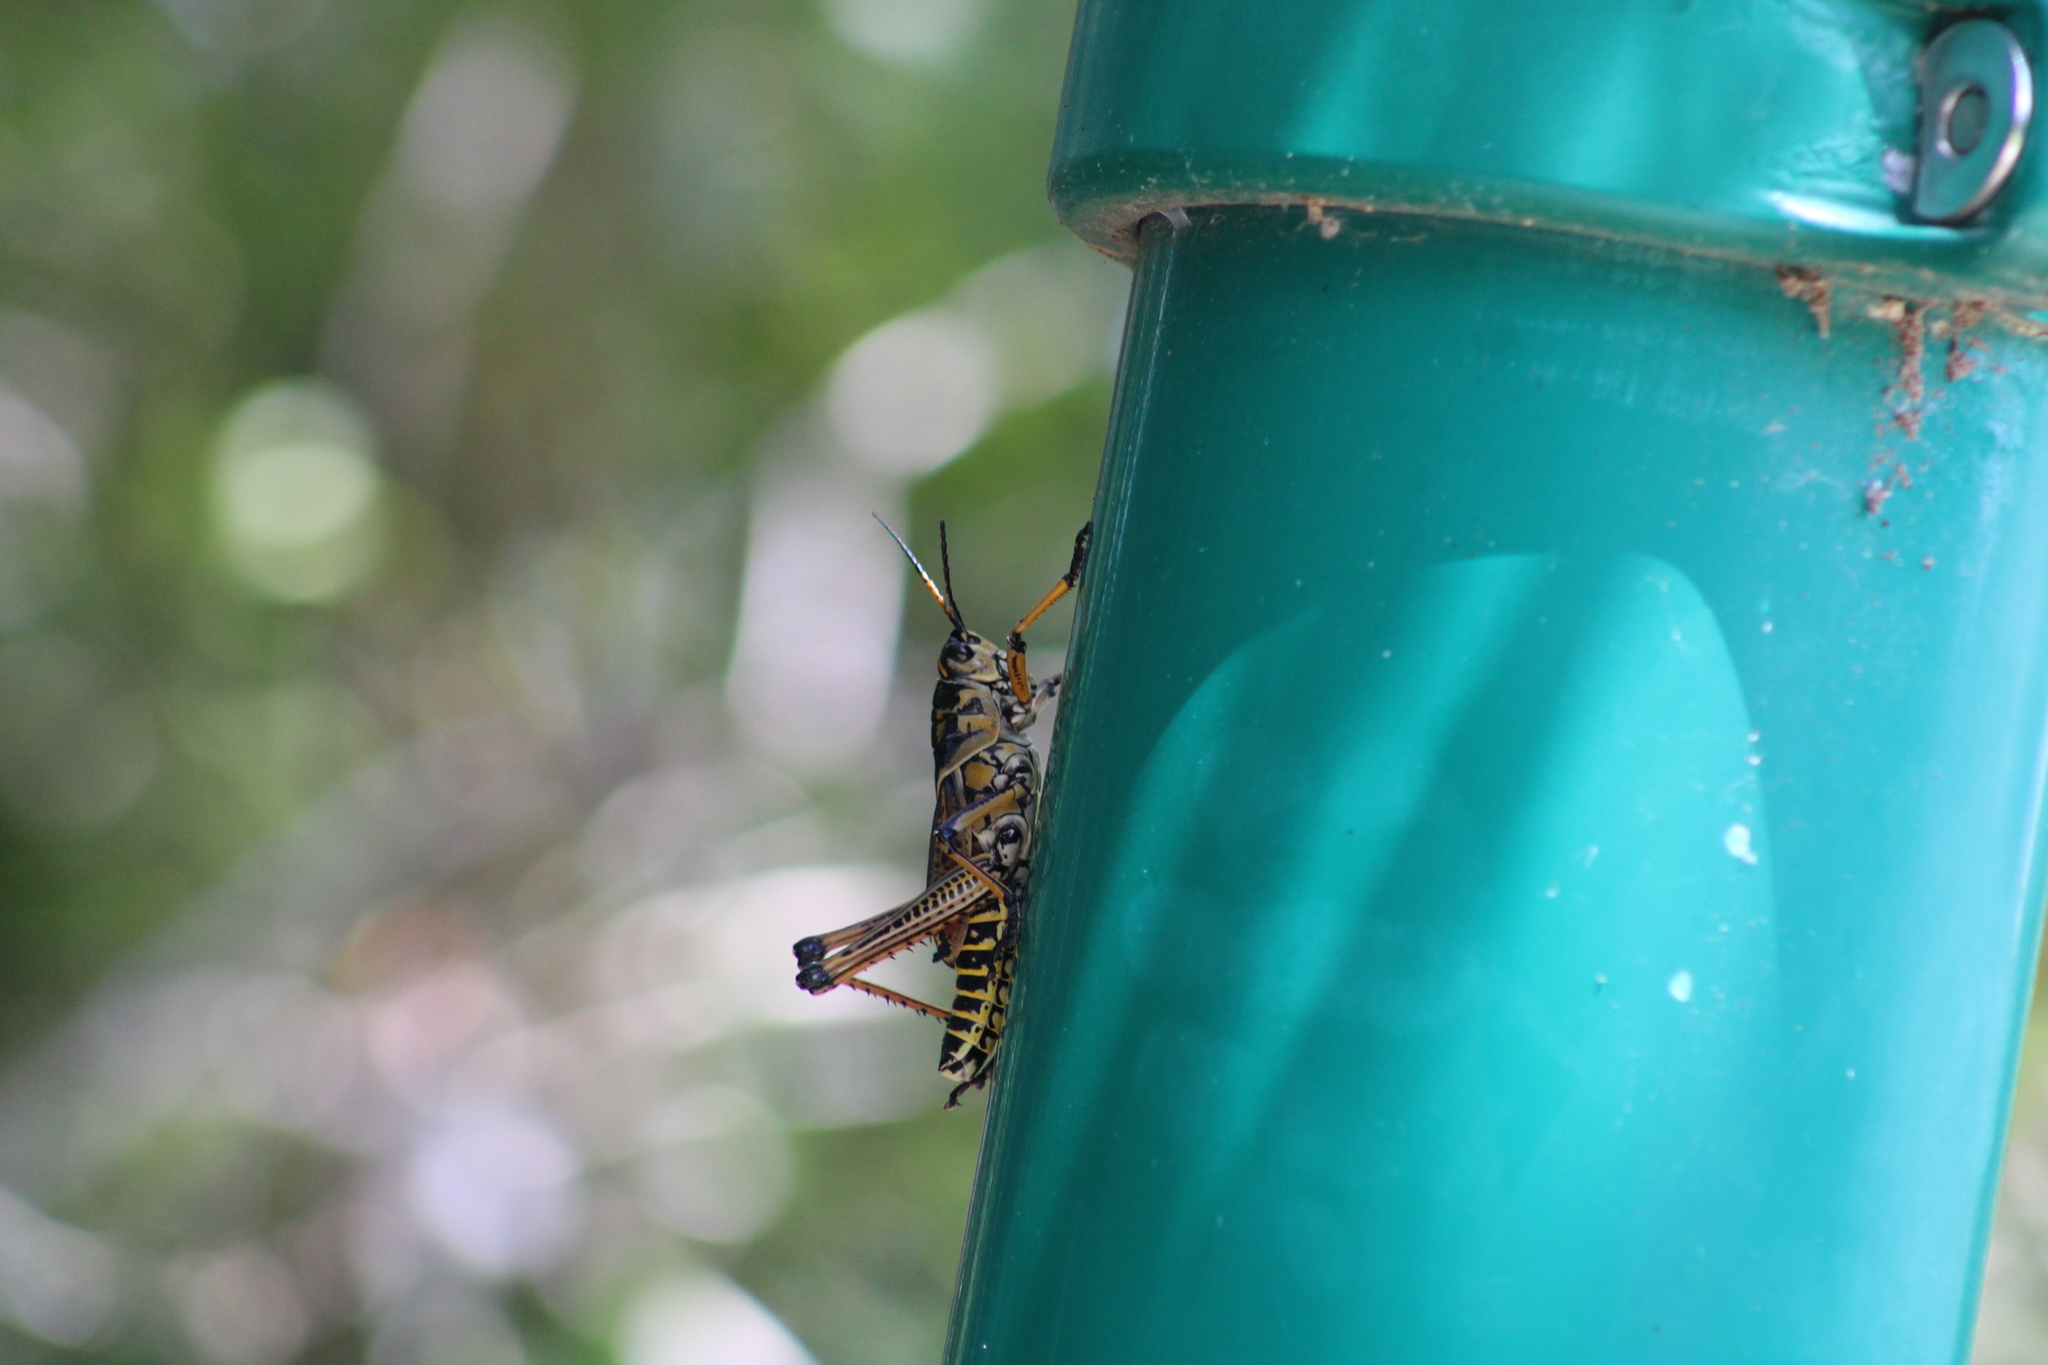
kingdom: Animalia
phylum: Arthropoda
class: Insecta
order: Orthoptera
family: Romaleidae
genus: Romalea
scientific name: Romalea microptera
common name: Eastern lubber grasshopper
